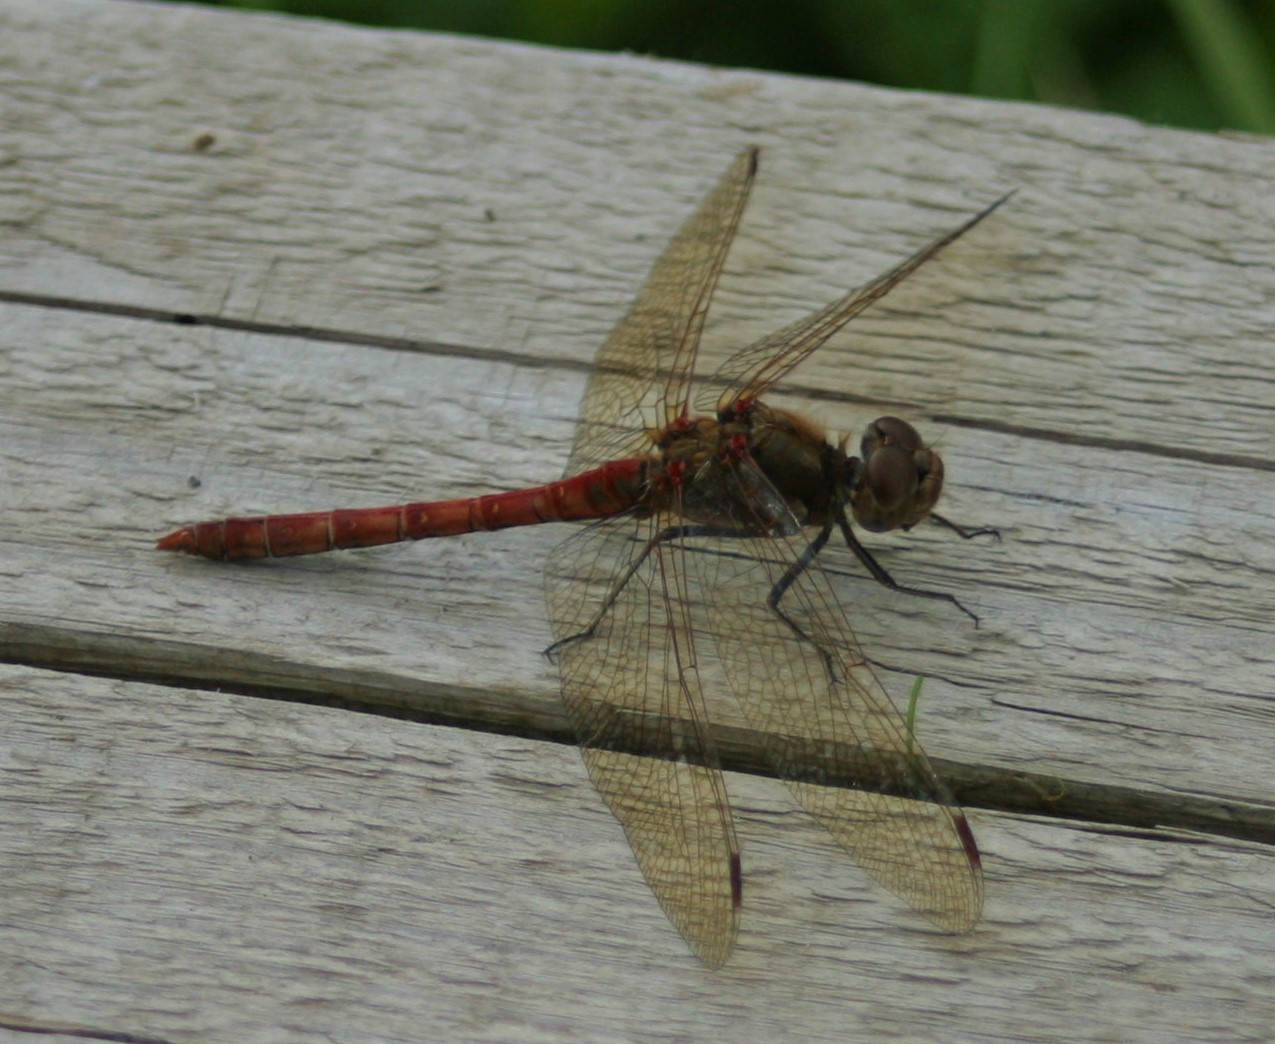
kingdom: Animalia
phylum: Arthropoda
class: Insecta
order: Odonata
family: Libellulidae
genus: Sympetrum
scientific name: Sympetrum striolatum
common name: Common darter
